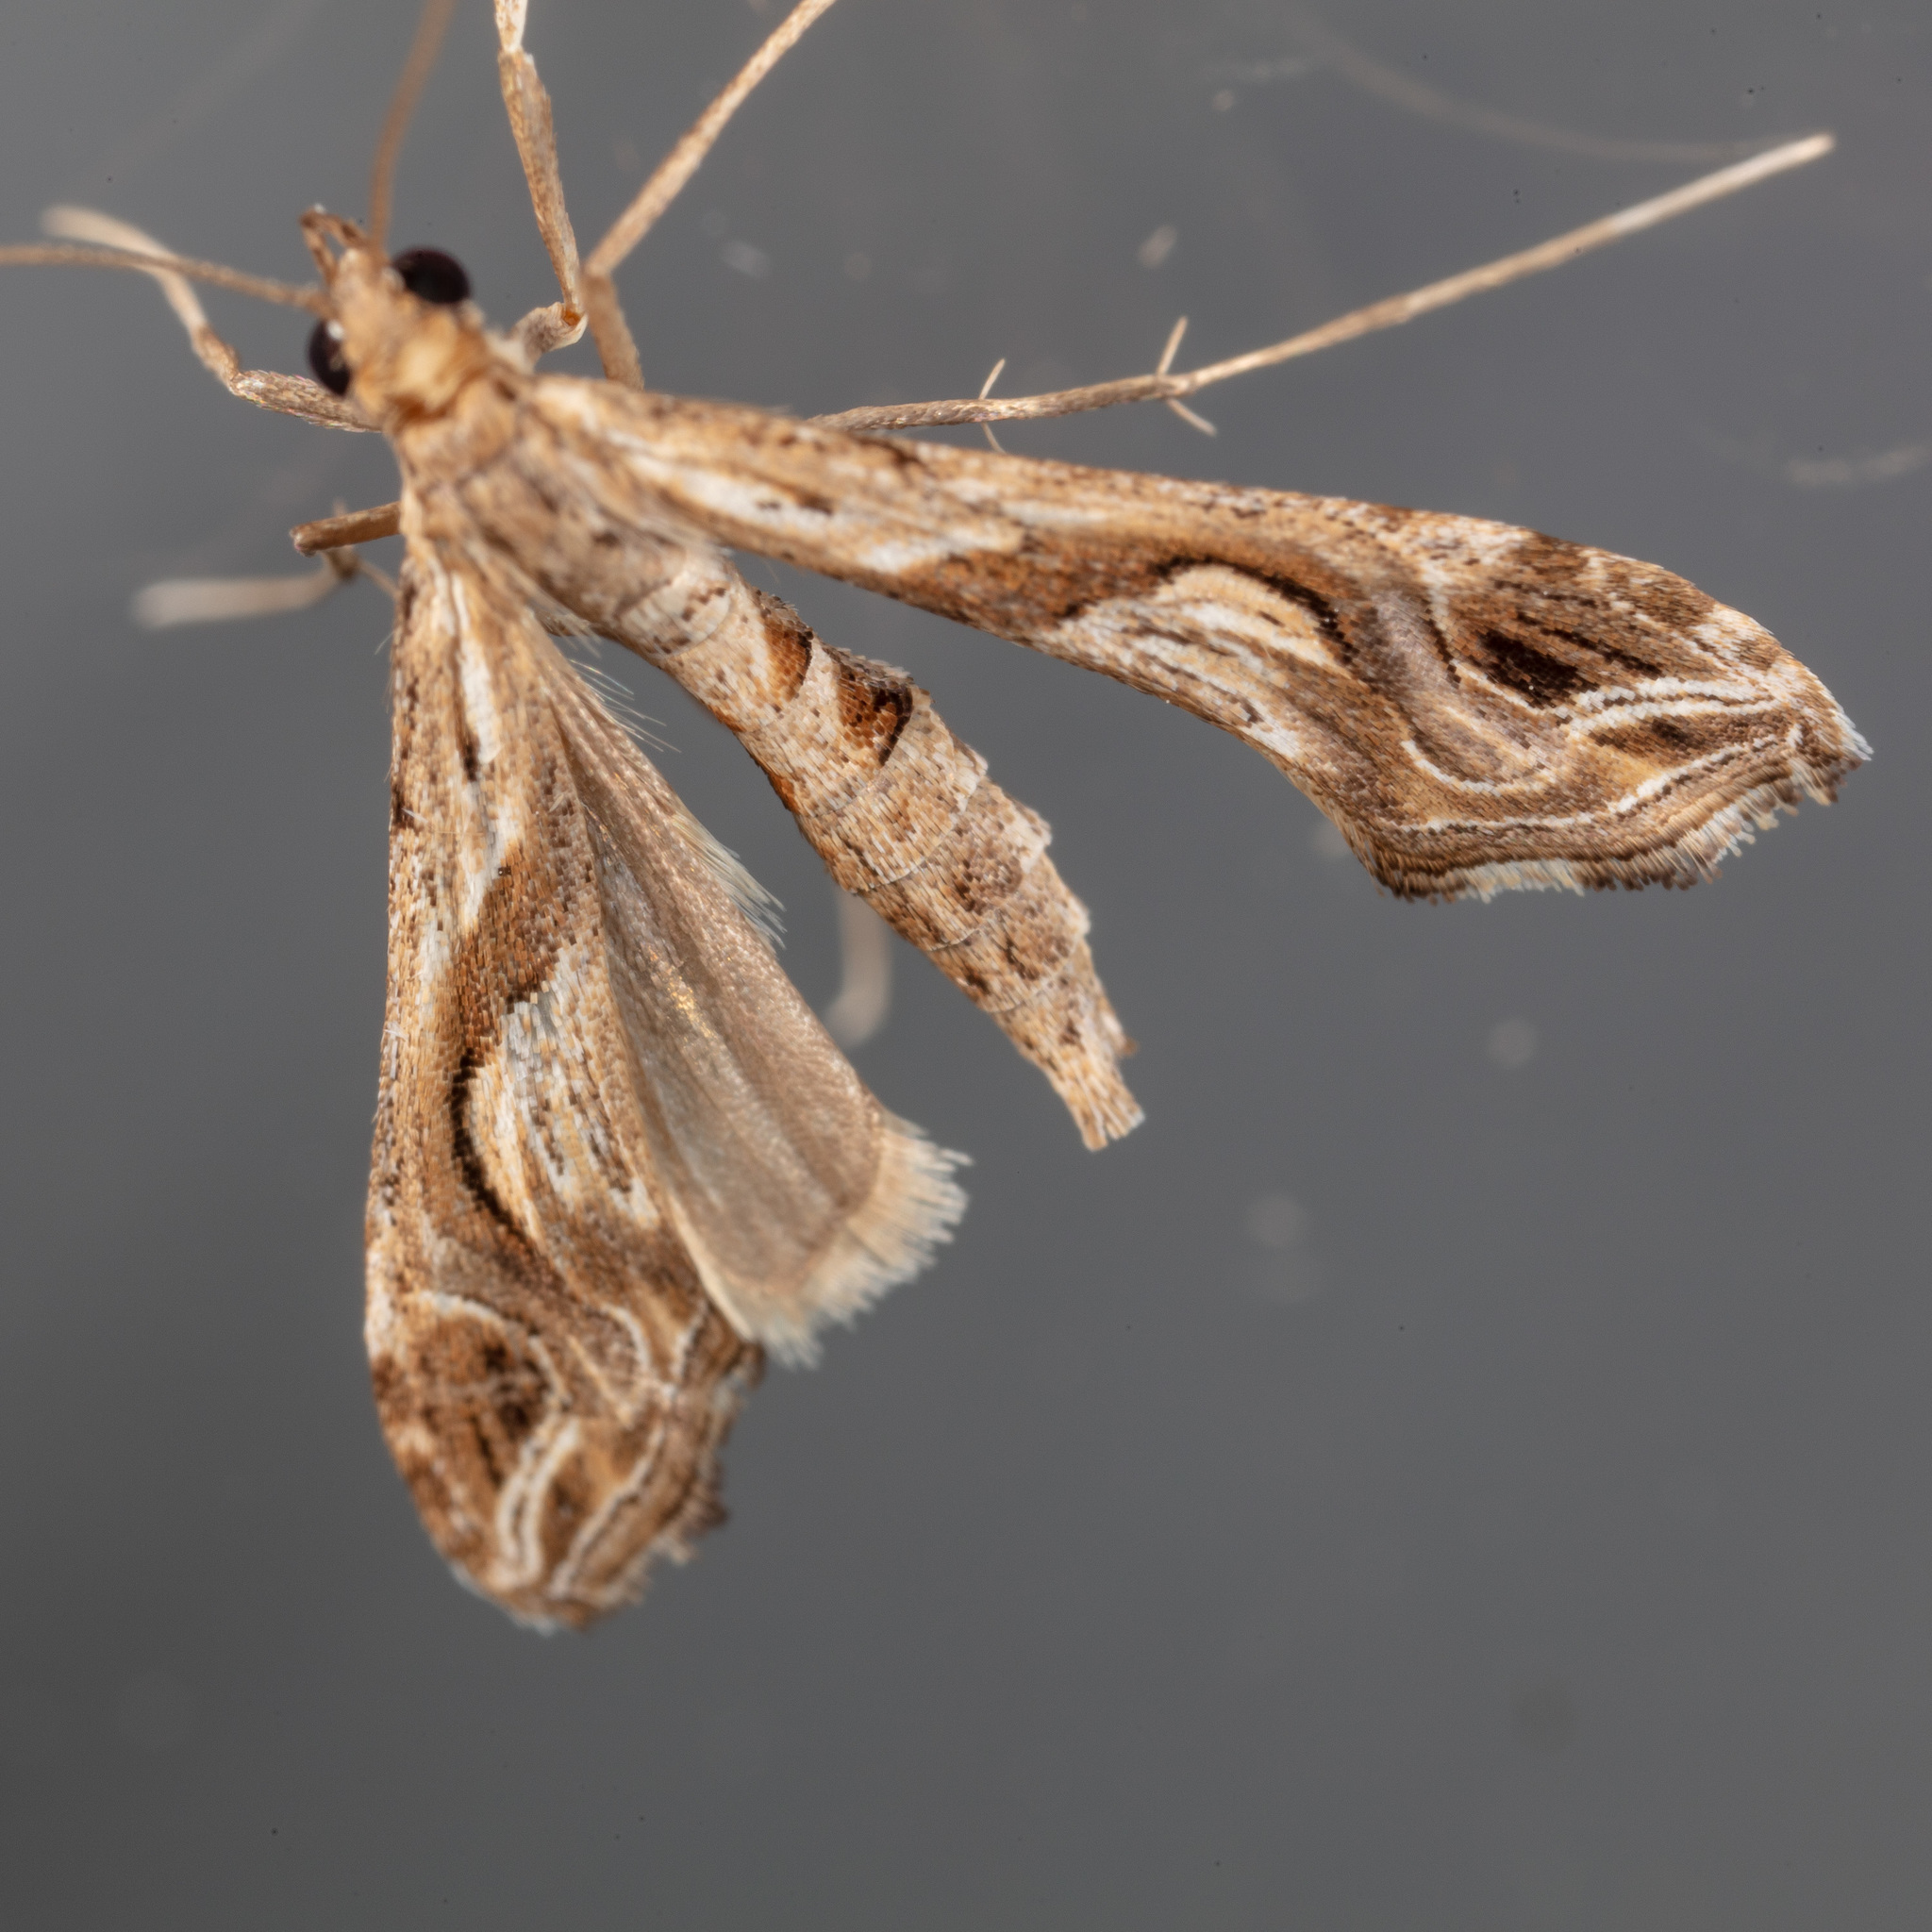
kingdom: Animalia
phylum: Arthropoda
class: Insecta
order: Lepidoptera
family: Crambidae
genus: Lineodes
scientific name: Lineodes integra
